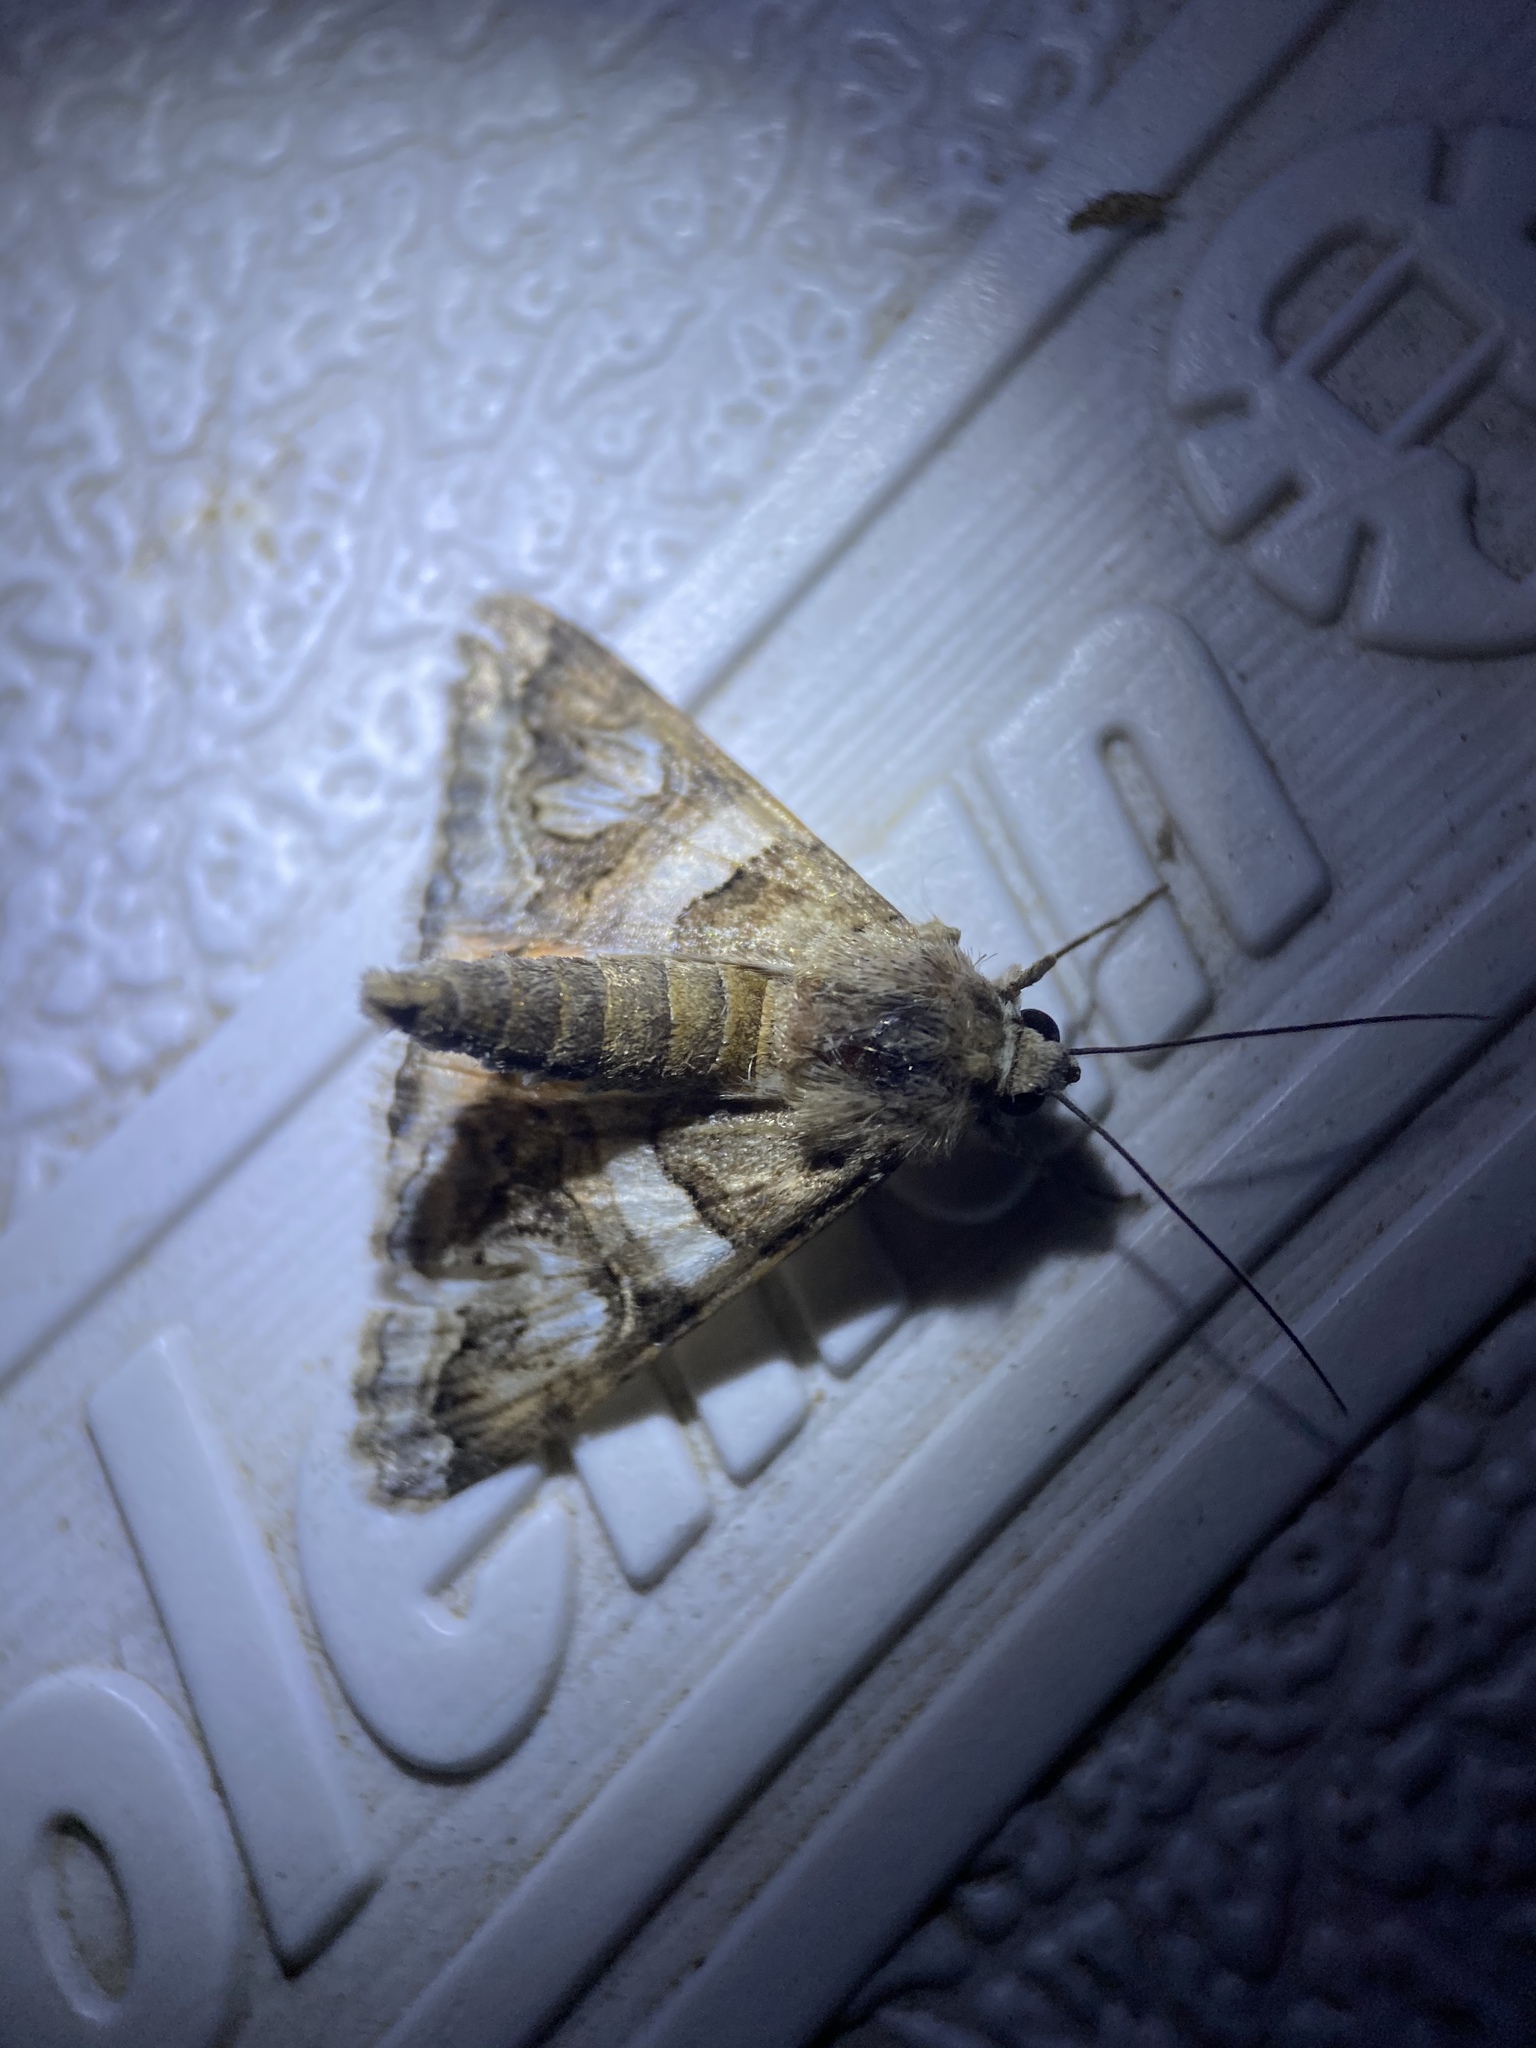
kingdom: Animalia
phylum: Arthropoda
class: Insecta
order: Lepidoptera
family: Erebidae
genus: Drasteria
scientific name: Drasteria howlandii
